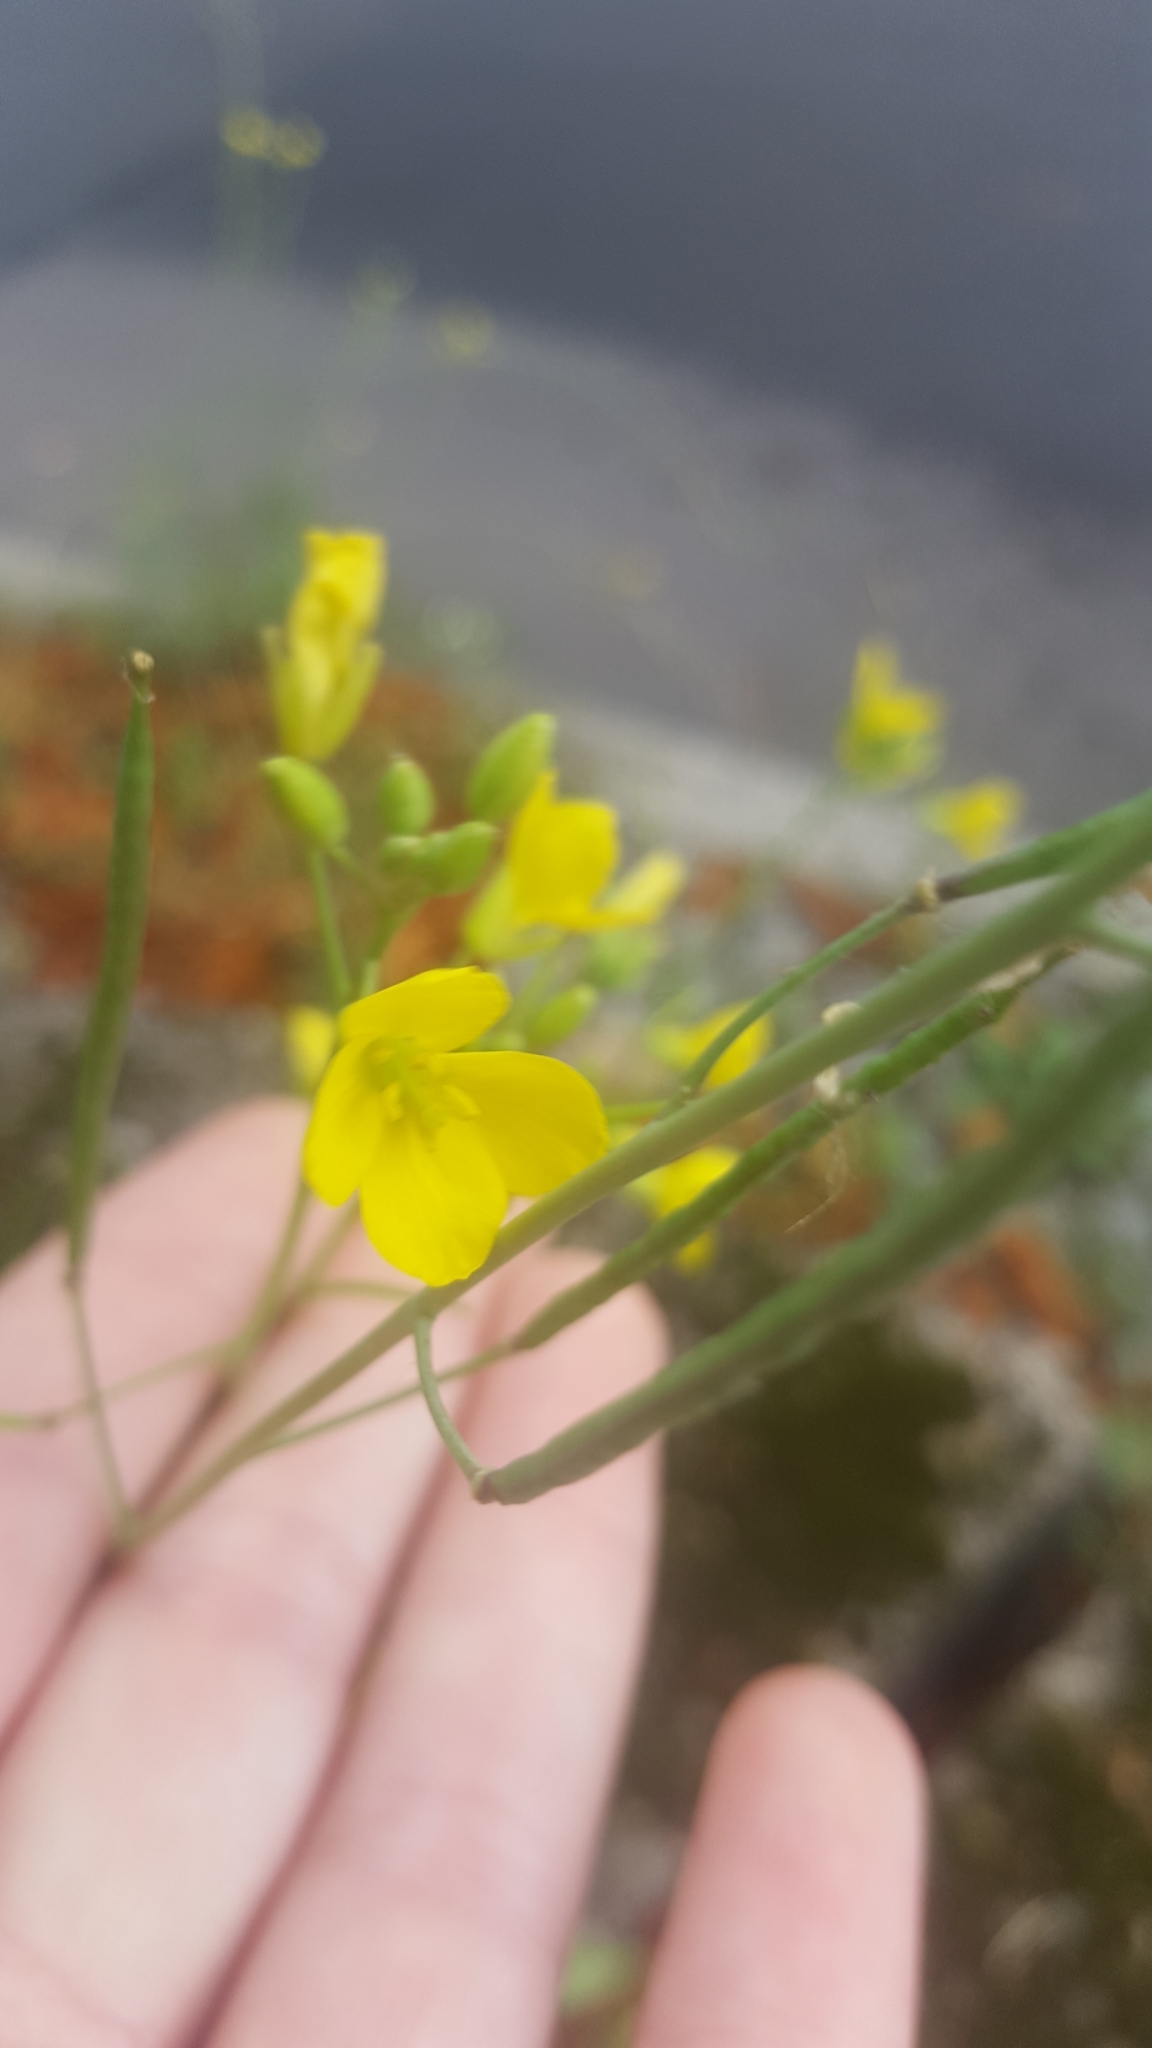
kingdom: Plantae
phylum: Tracheophyta
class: Magnoliopsida
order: Brassicales
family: Brassicaceae
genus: Diplotaxis
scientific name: Diplotaxis tenuifolia
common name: Perennial wall-rocket
